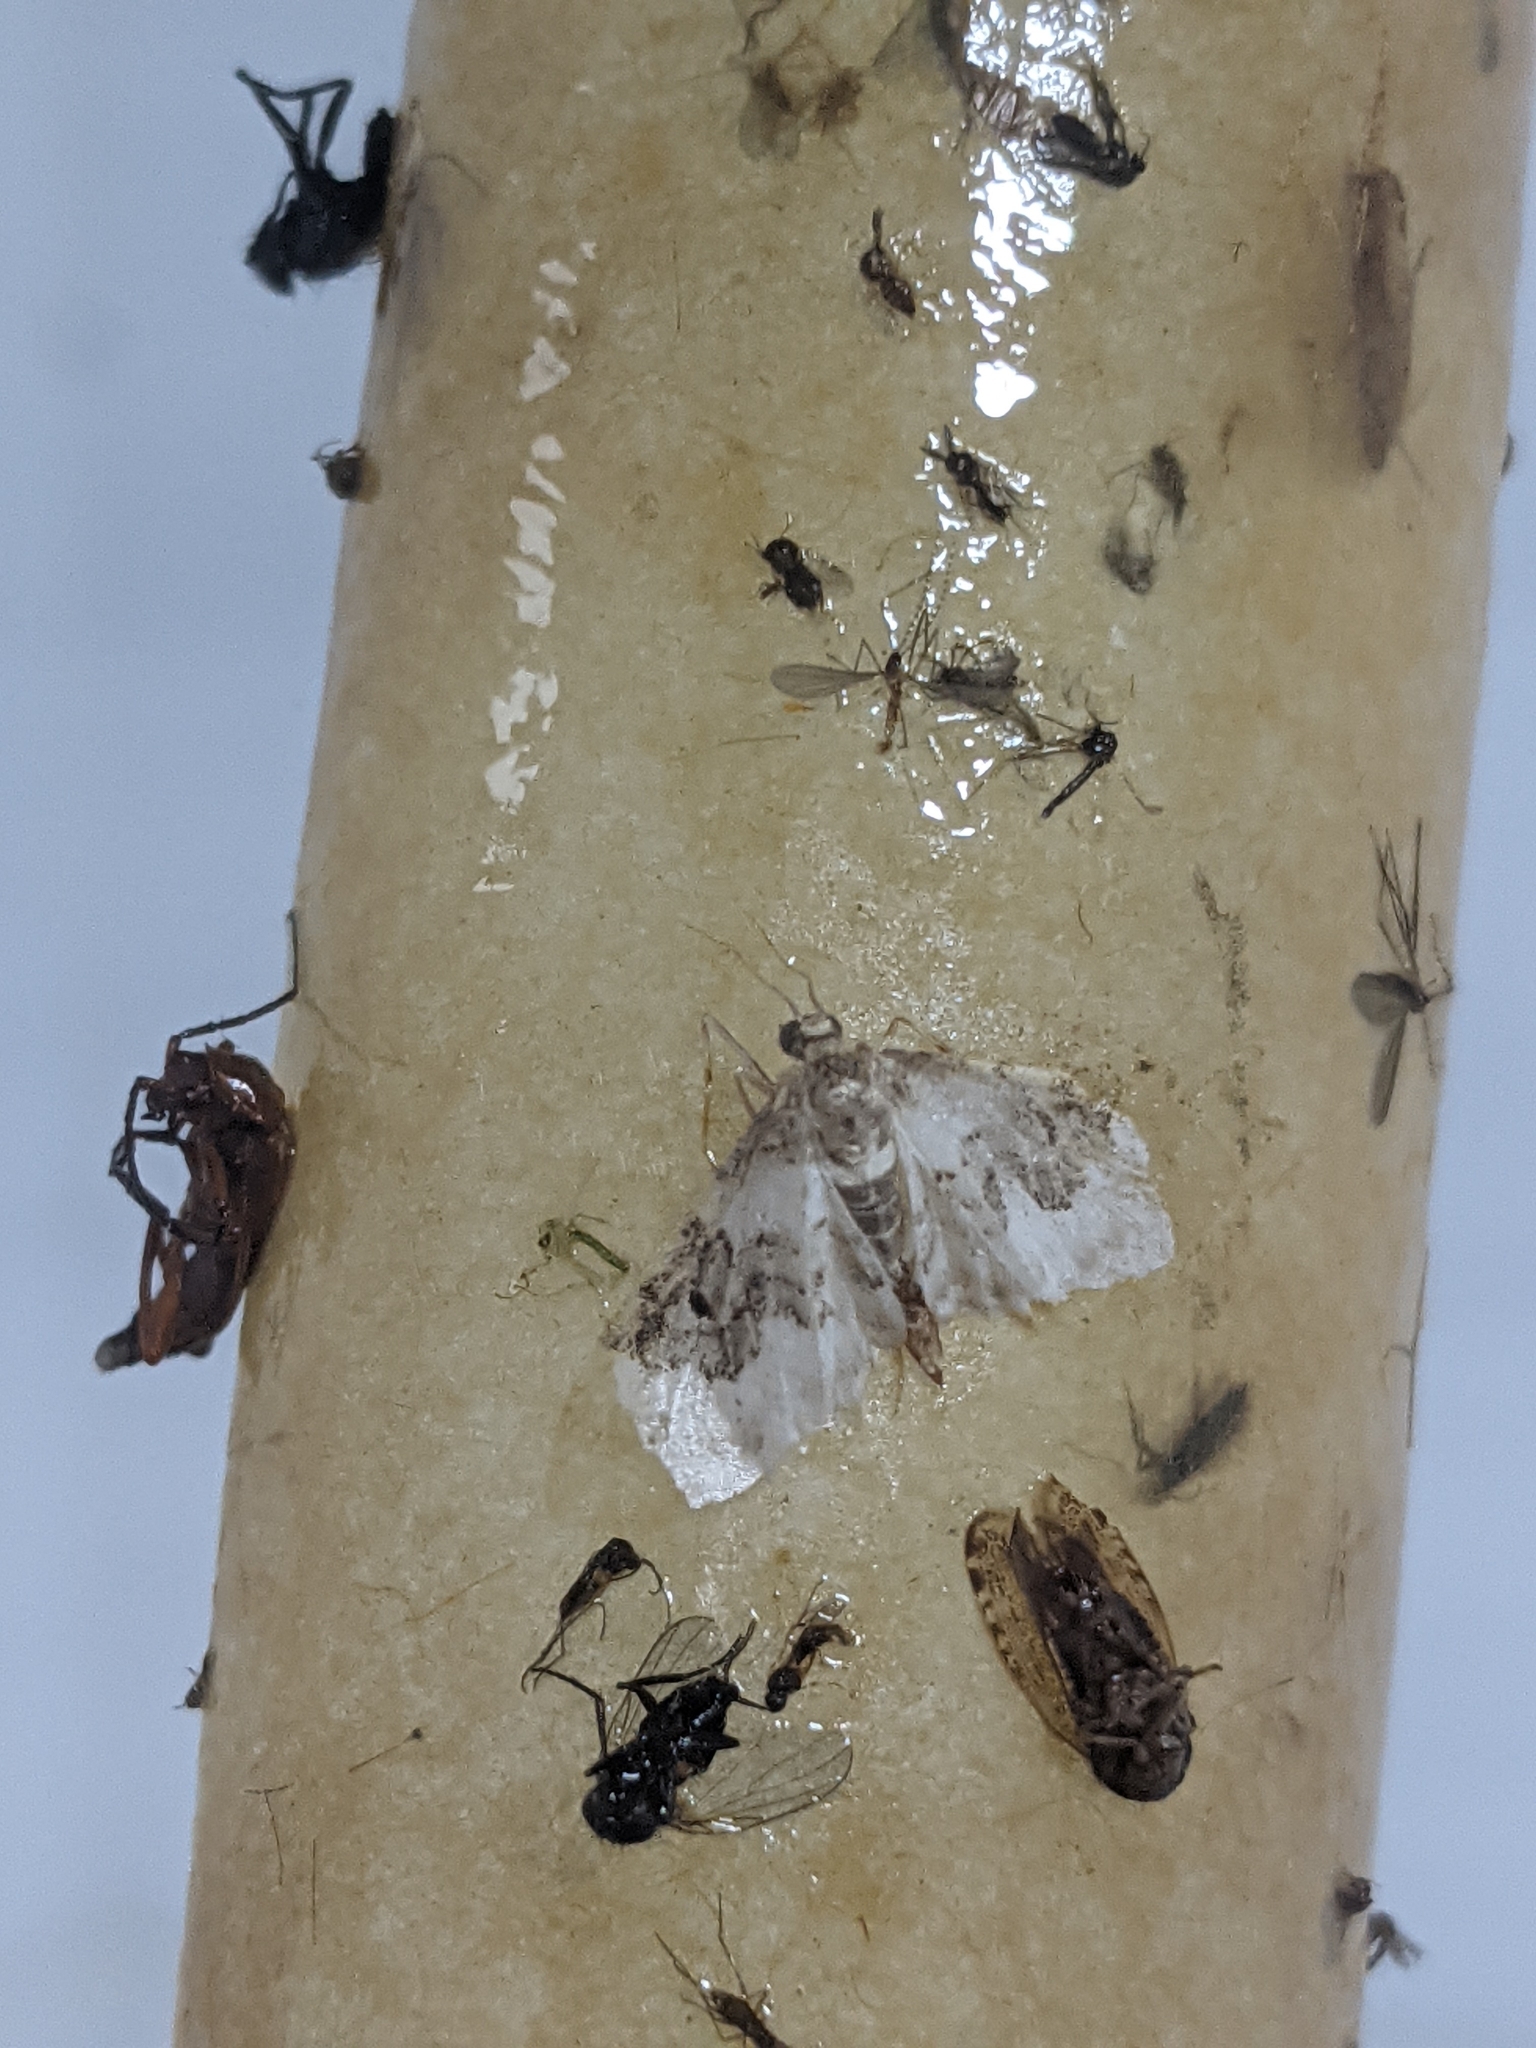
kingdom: Animalia
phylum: Arthropoda
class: Insecta
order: Lepidoptera
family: Geometridae
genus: Idaea
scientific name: Idaea rusticata
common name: Least carpet
